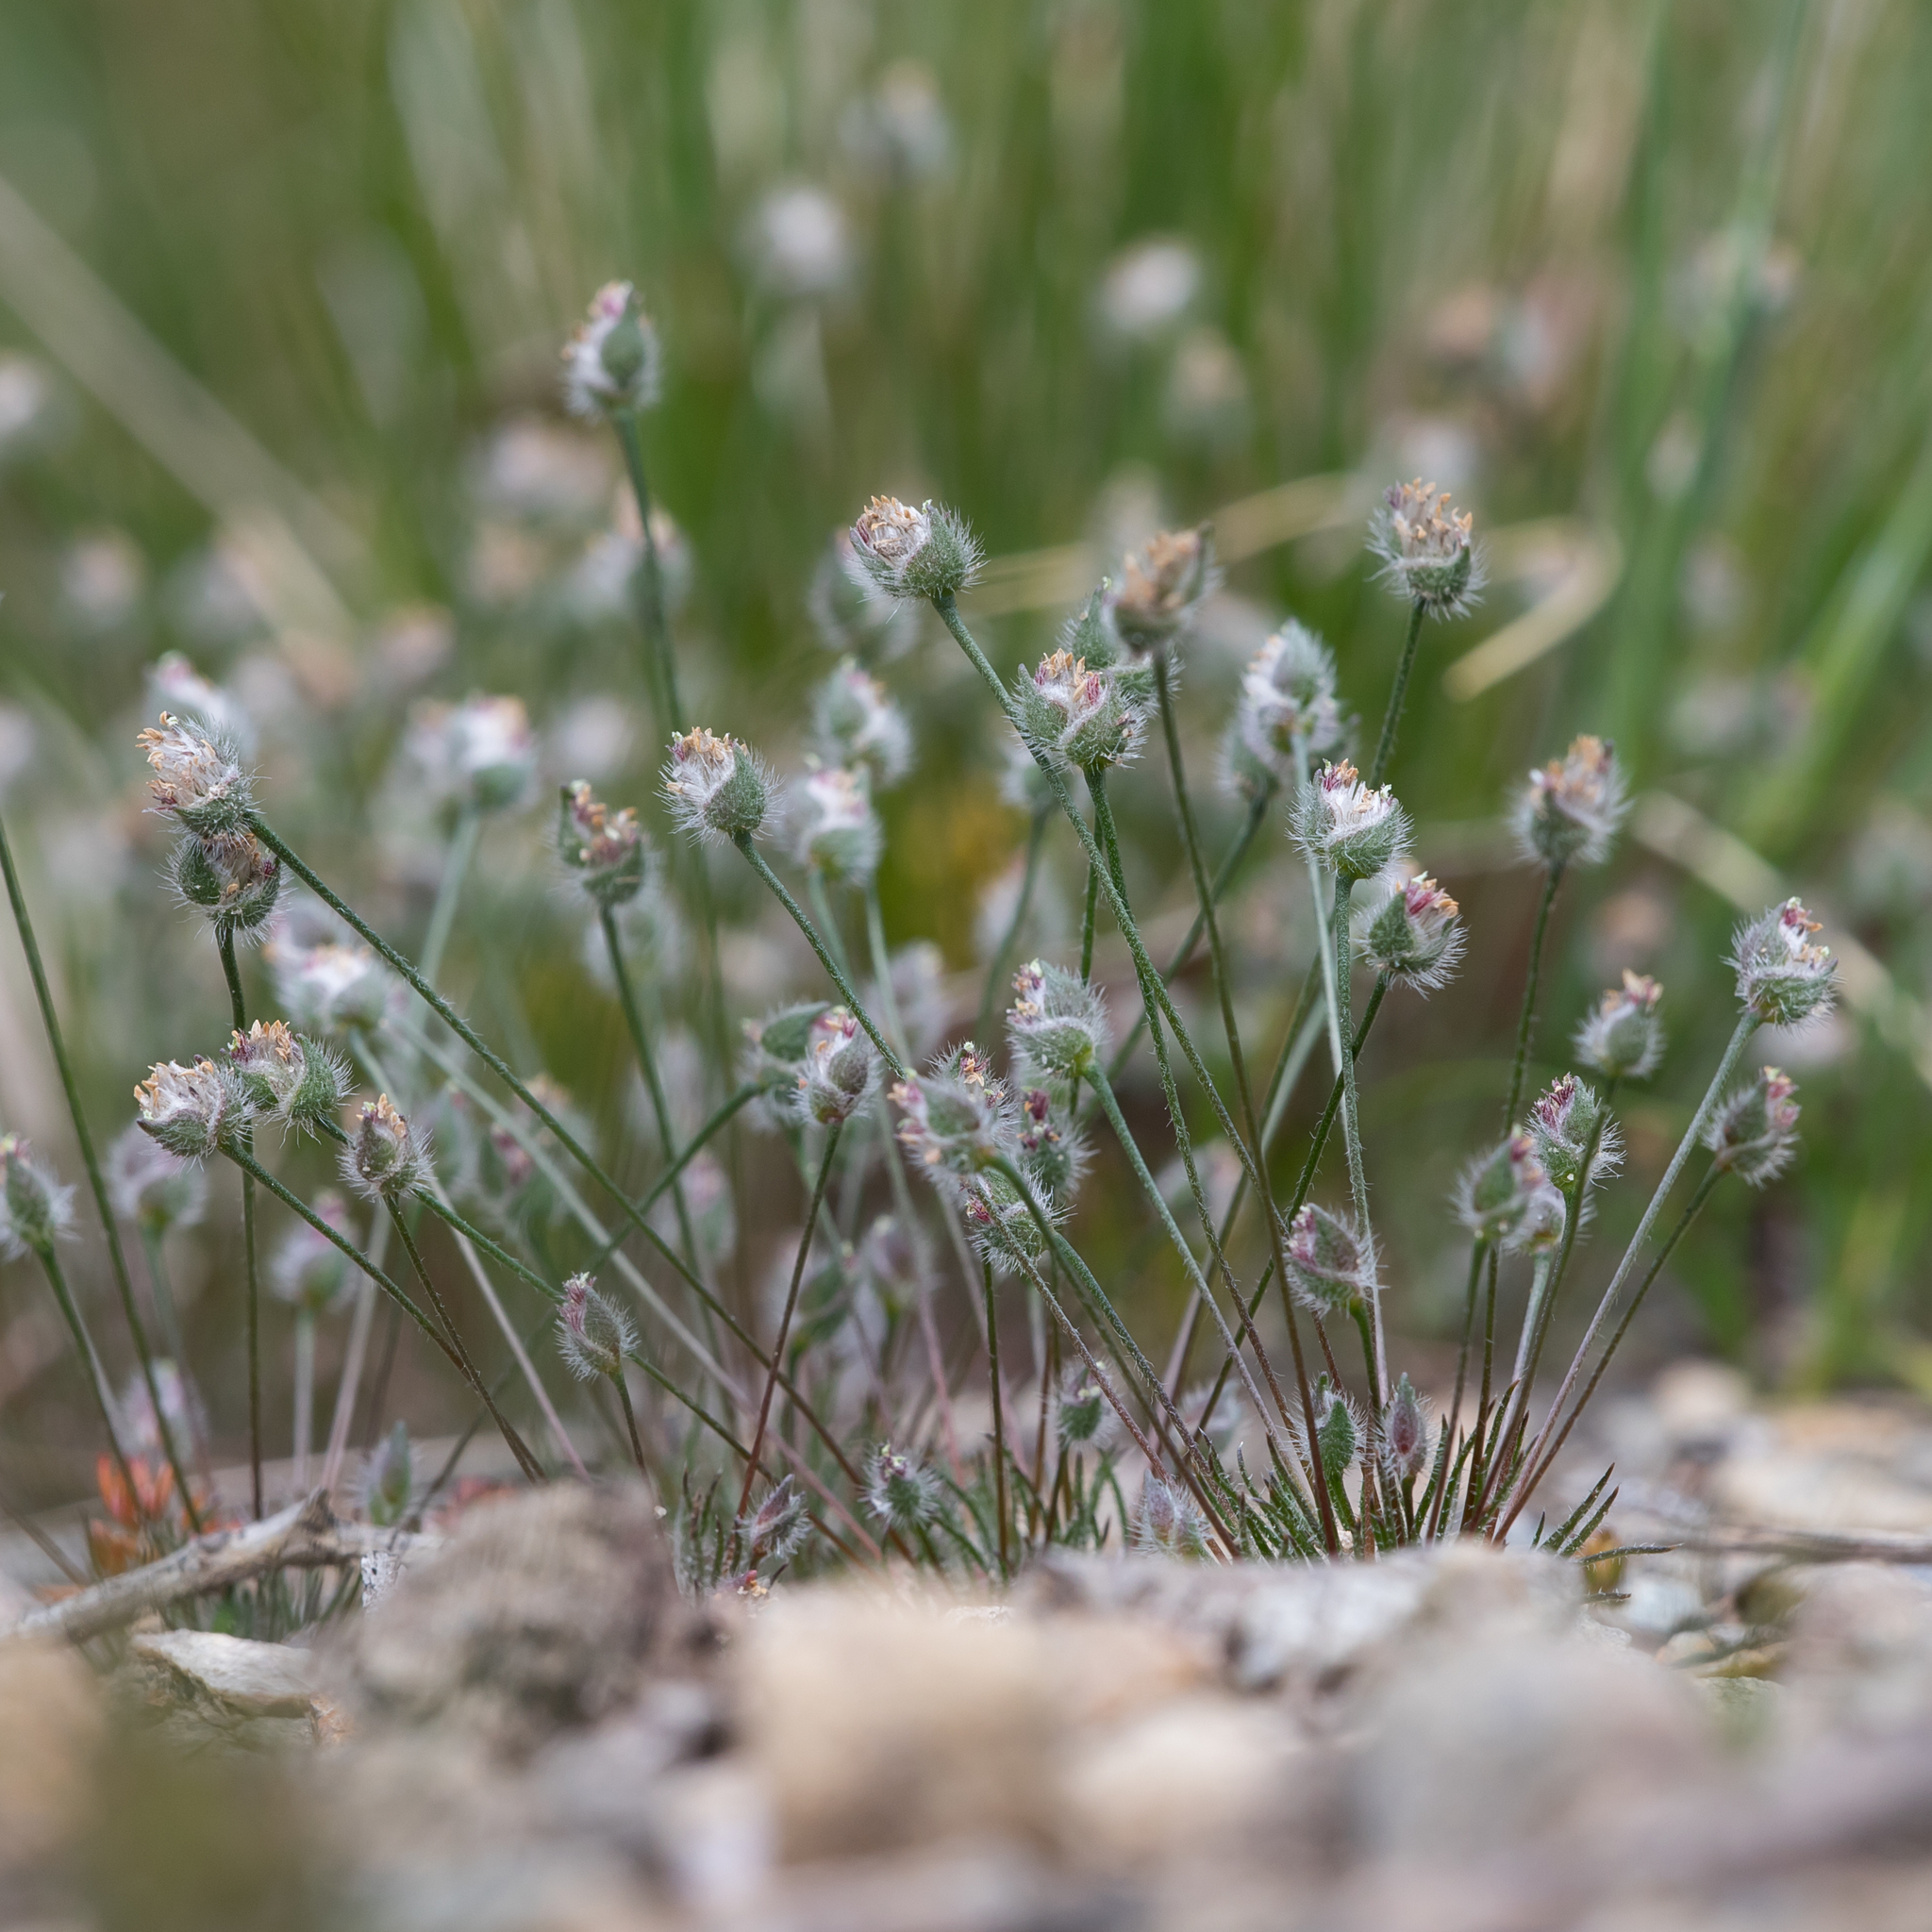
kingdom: Plantae
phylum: Tracheophyta
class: Liliopsida
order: Poales
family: Restionaceae
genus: Centrolepis
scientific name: Centrolepis strigosa
